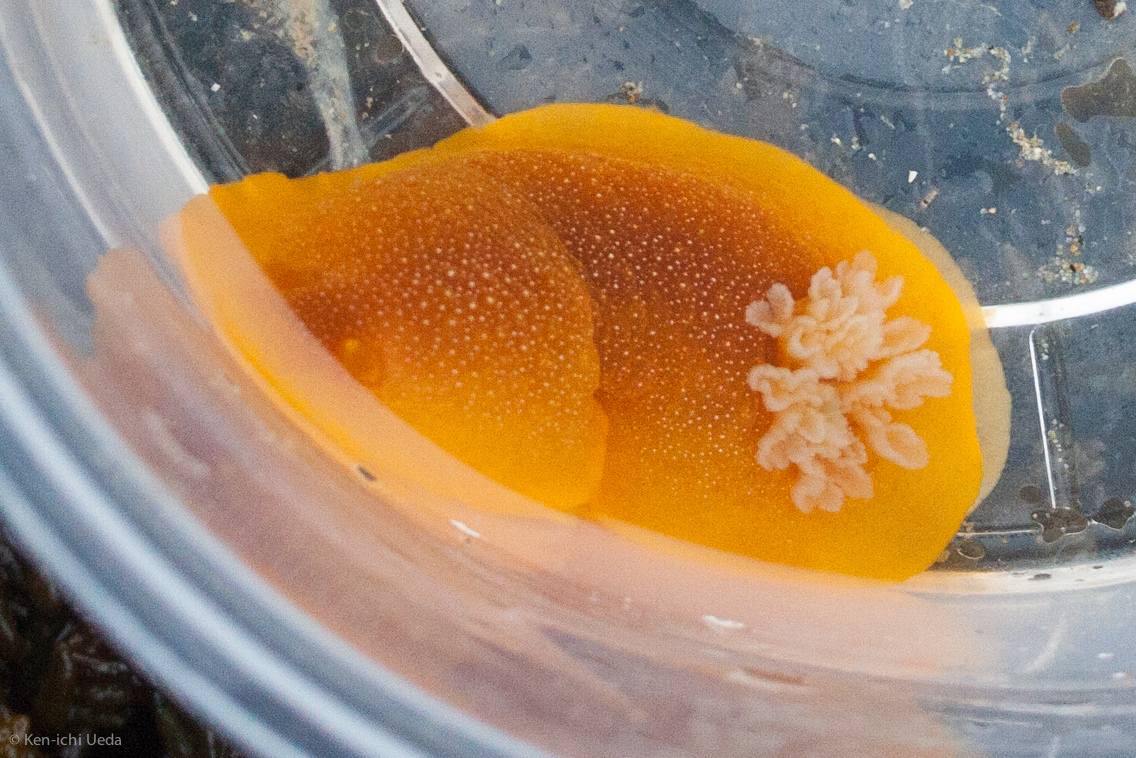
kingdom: Animalia
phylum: Mollusca
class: Gastropoda
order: Nudibranchia
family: Dendrodorididae
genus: Doriopsilla
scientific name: Doriopsilla albopunctata
